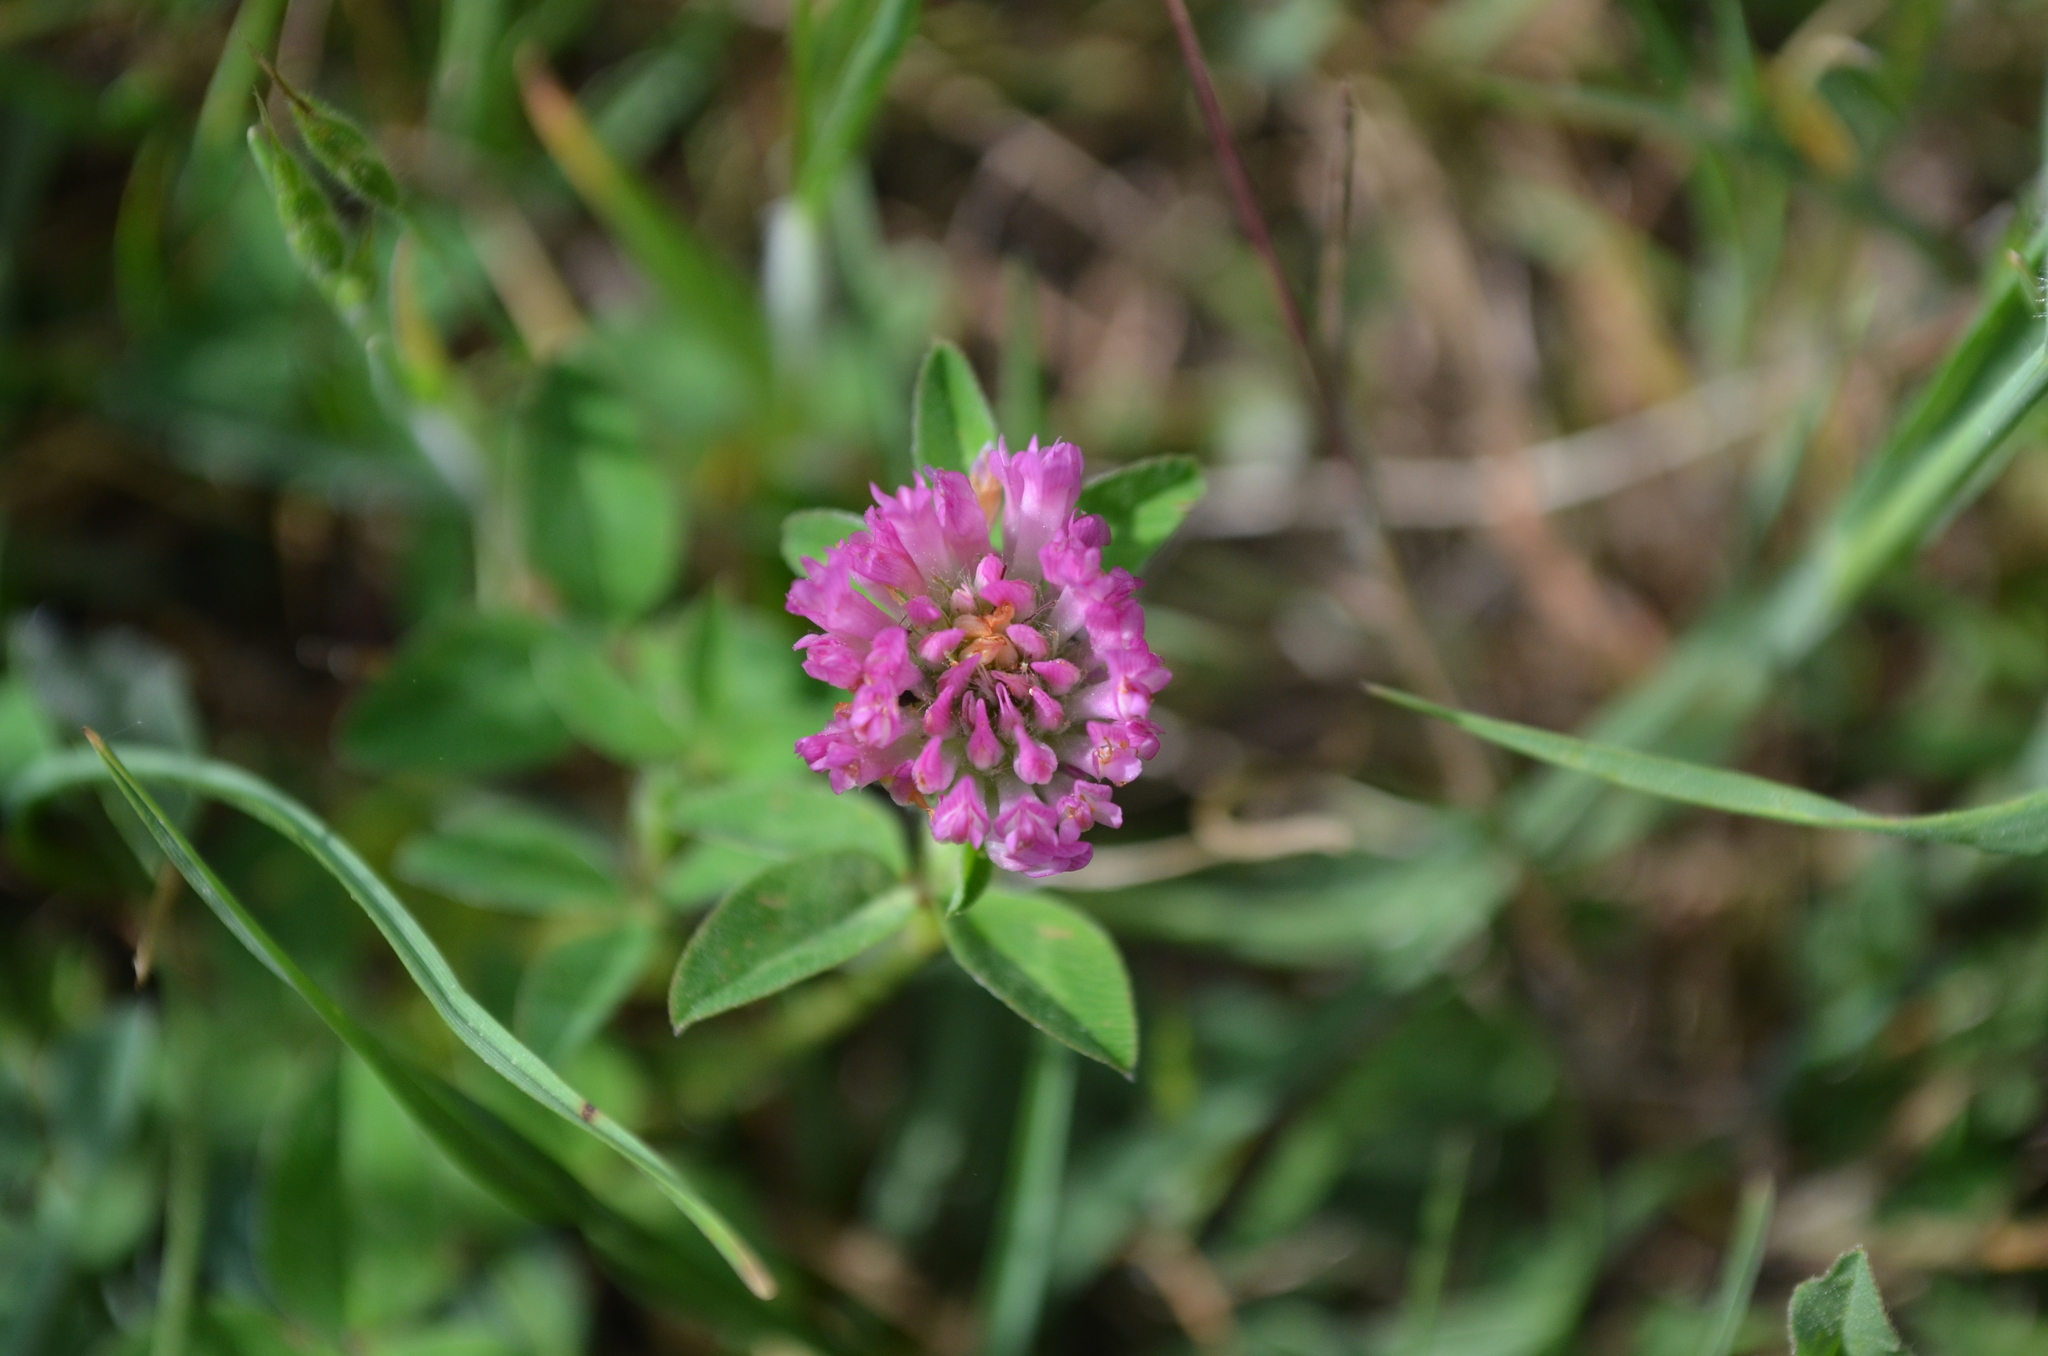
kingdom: Plantae
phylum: Tracheophyta
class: Magnoliopsida
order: Fabales
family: Fabaceae
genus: Trifolium
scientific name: Trifolium pratense
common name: Red clover
